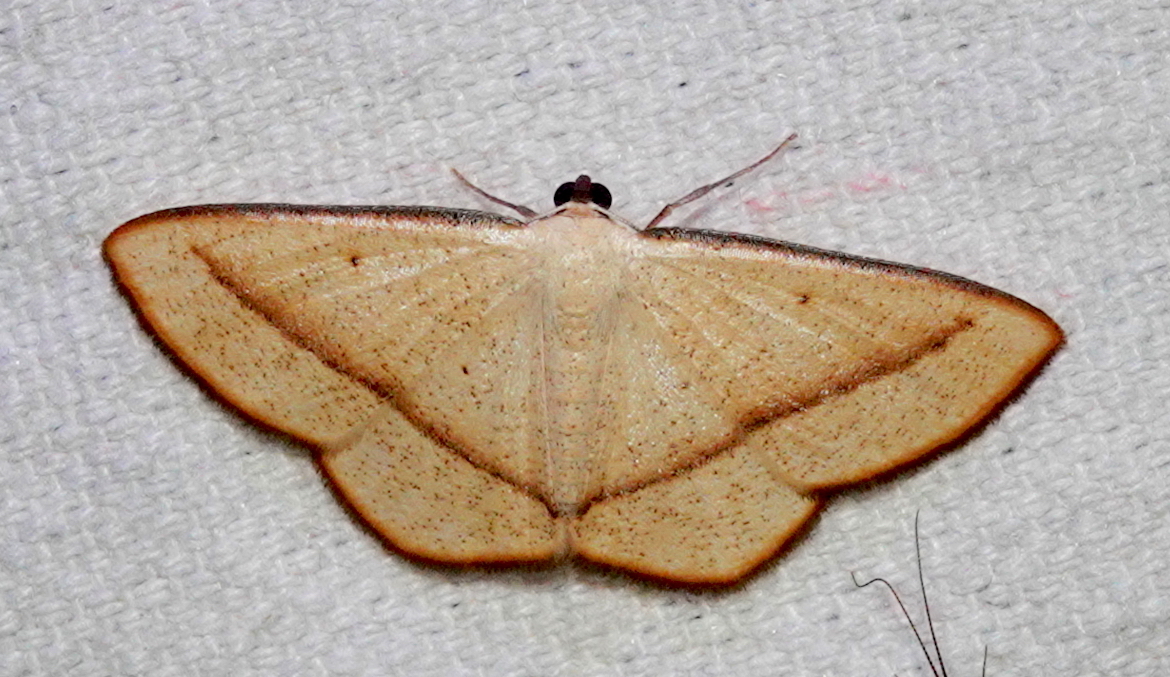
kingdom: Animalia
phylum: Arthropoda
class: Insecta
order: Lepidoptera
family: Geometridae
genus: Lomographa
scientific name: Lomographa inamata
